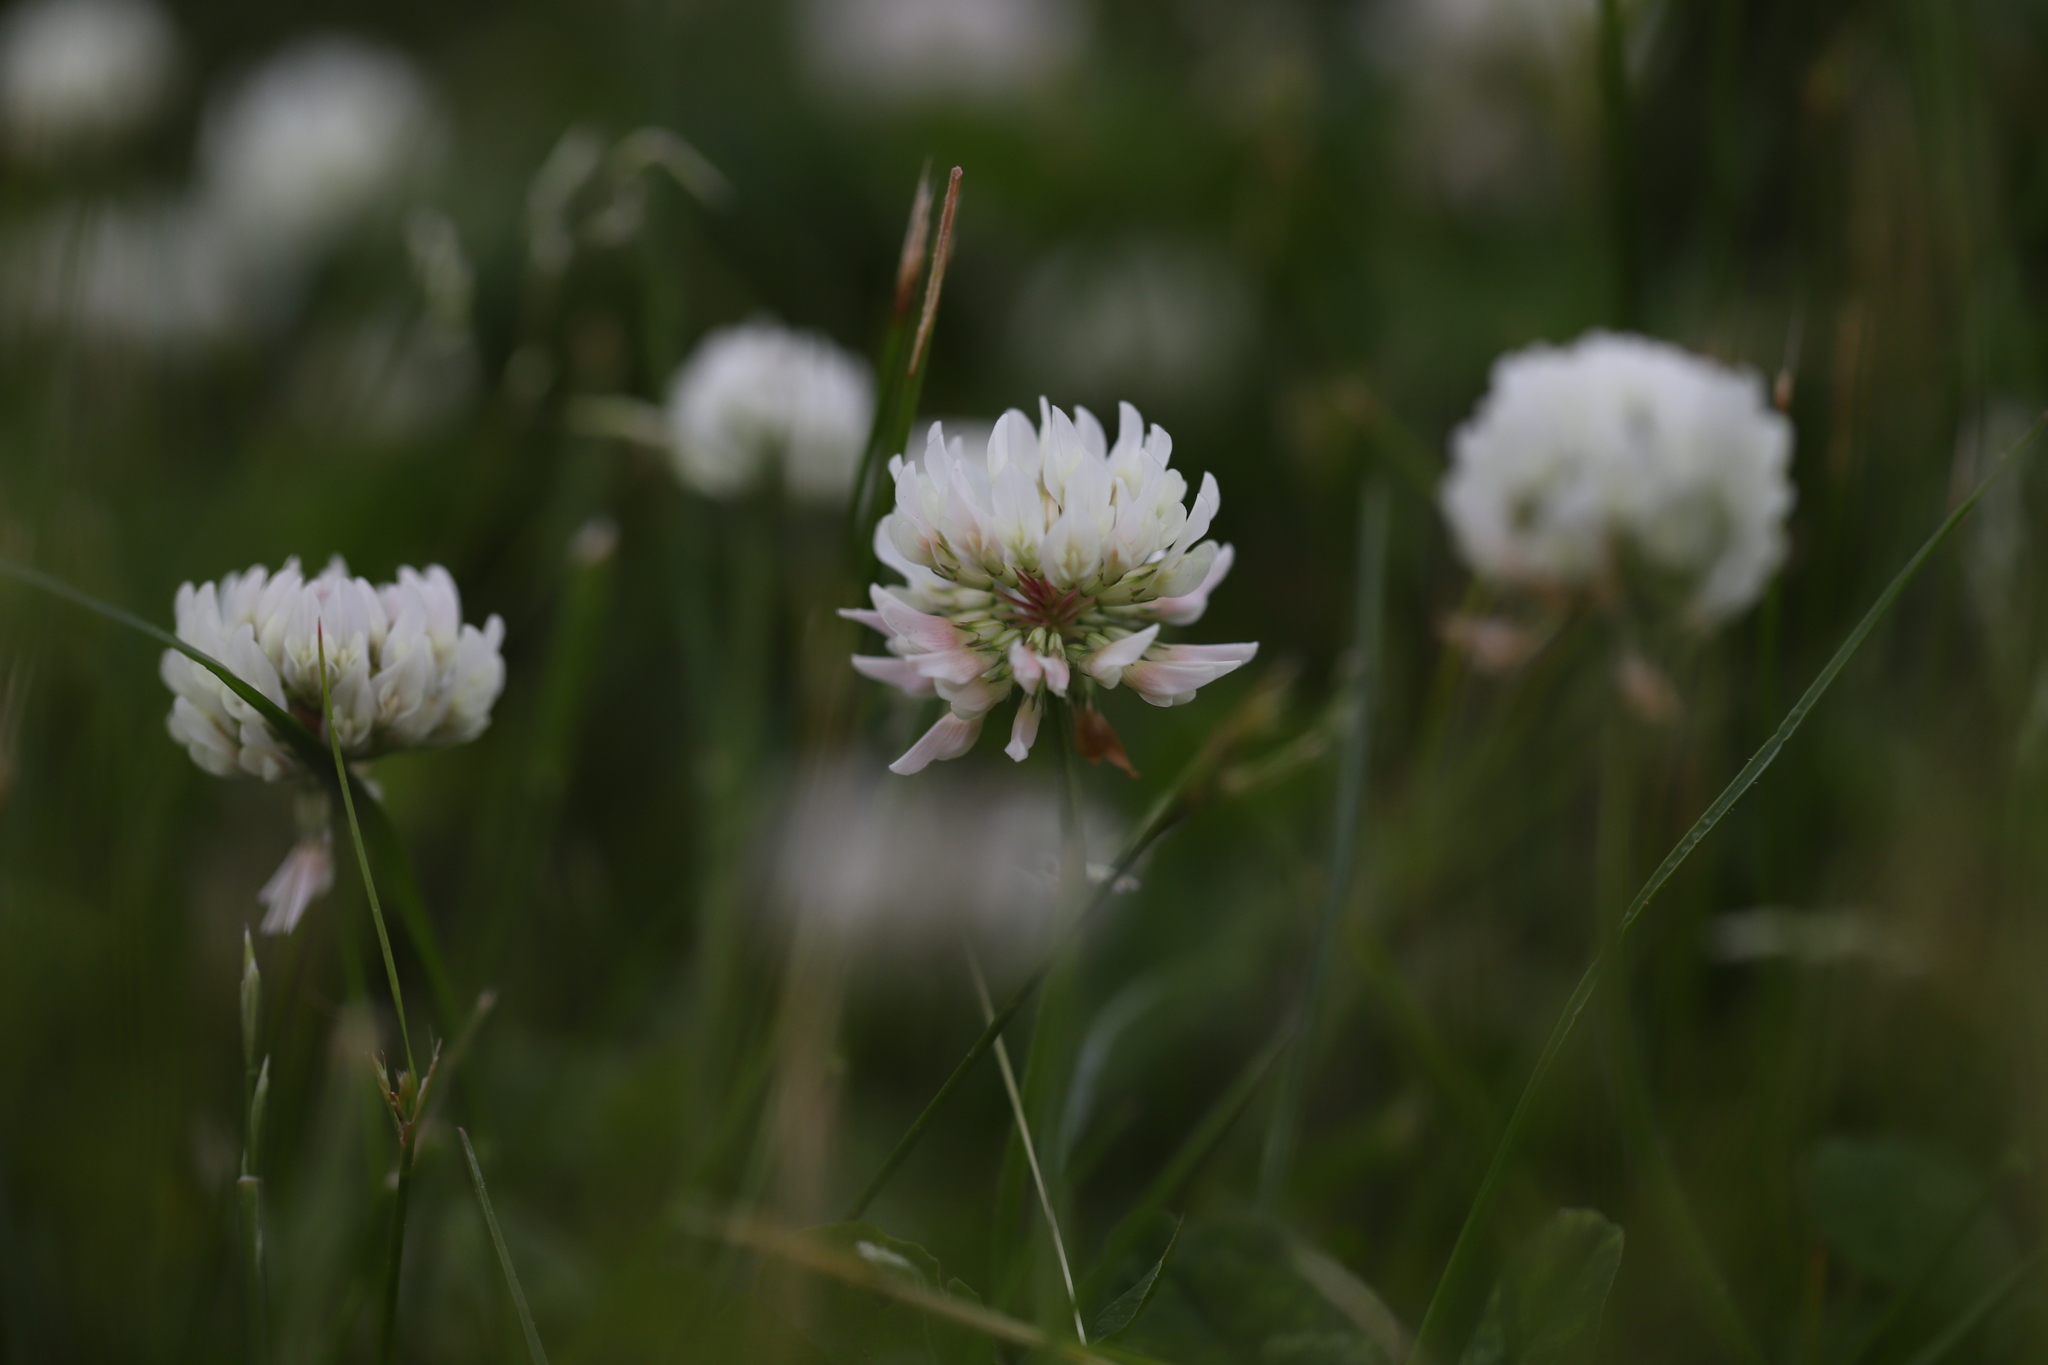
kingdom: Plantae
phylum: Tracheophyta
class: Magnoliopsida
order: Fabales
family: Fabaceae
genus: Trifolium
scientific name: Trifolium repens
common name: White clover
